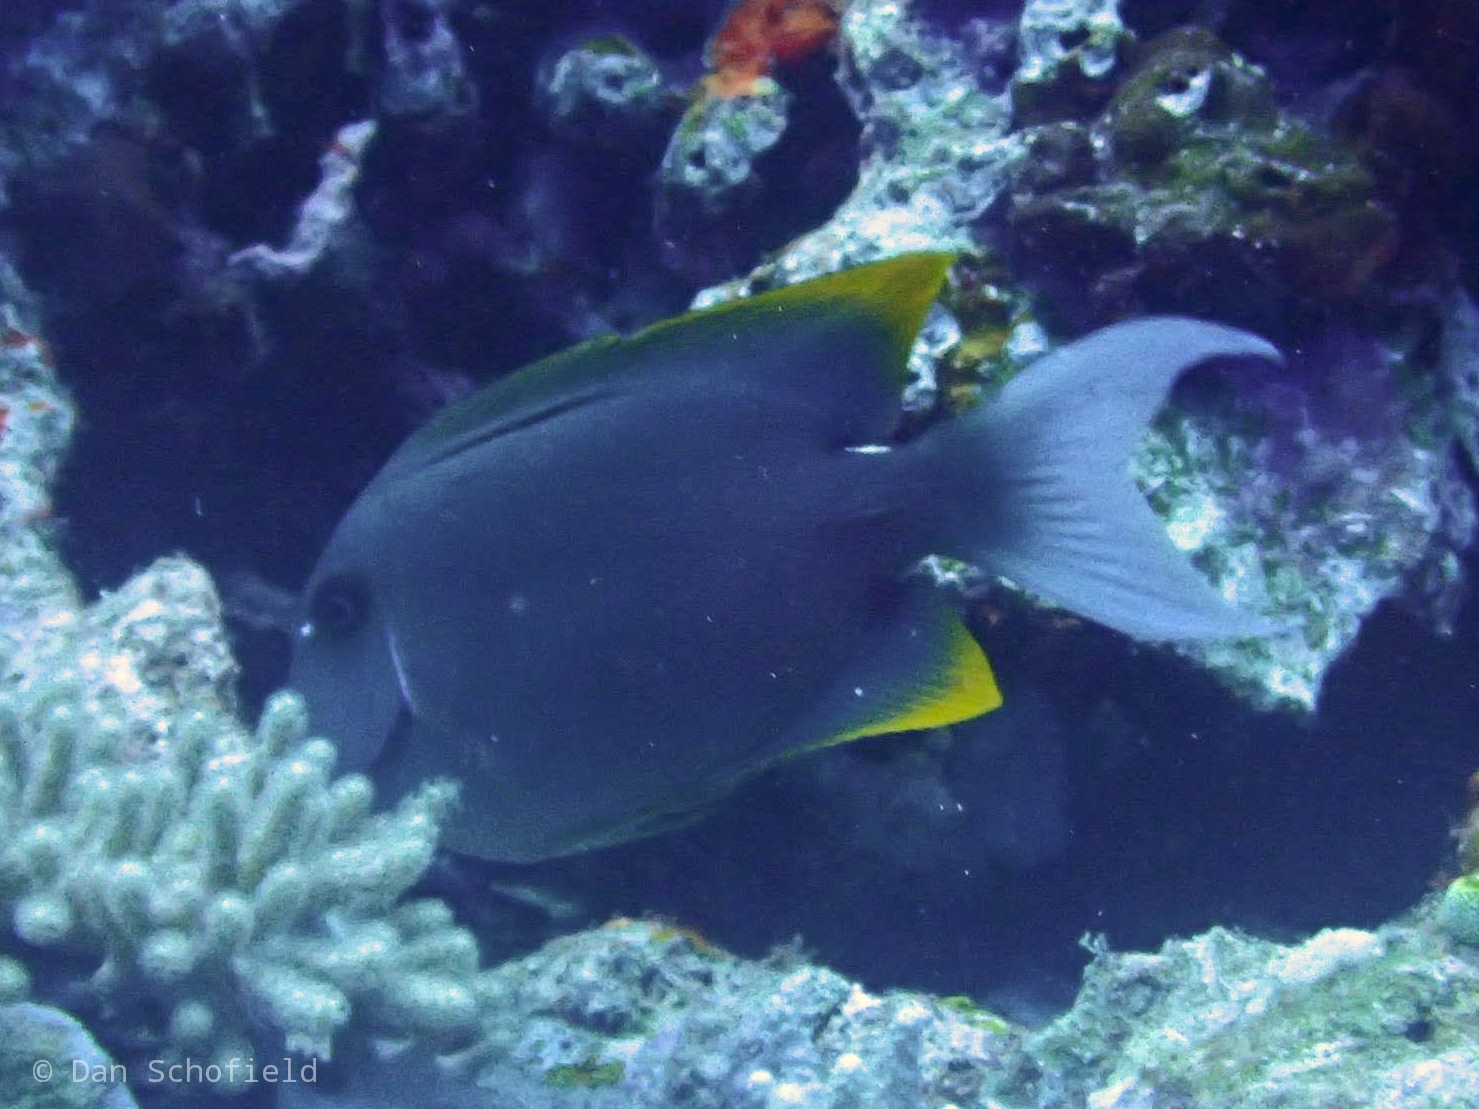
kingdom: Animalia
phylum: Chordata
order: Perciformes
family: Acanthuridae
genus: Ctenochaetus
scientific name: Ctenochaetus tominiensis
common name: Orange-tipped bristletooth
